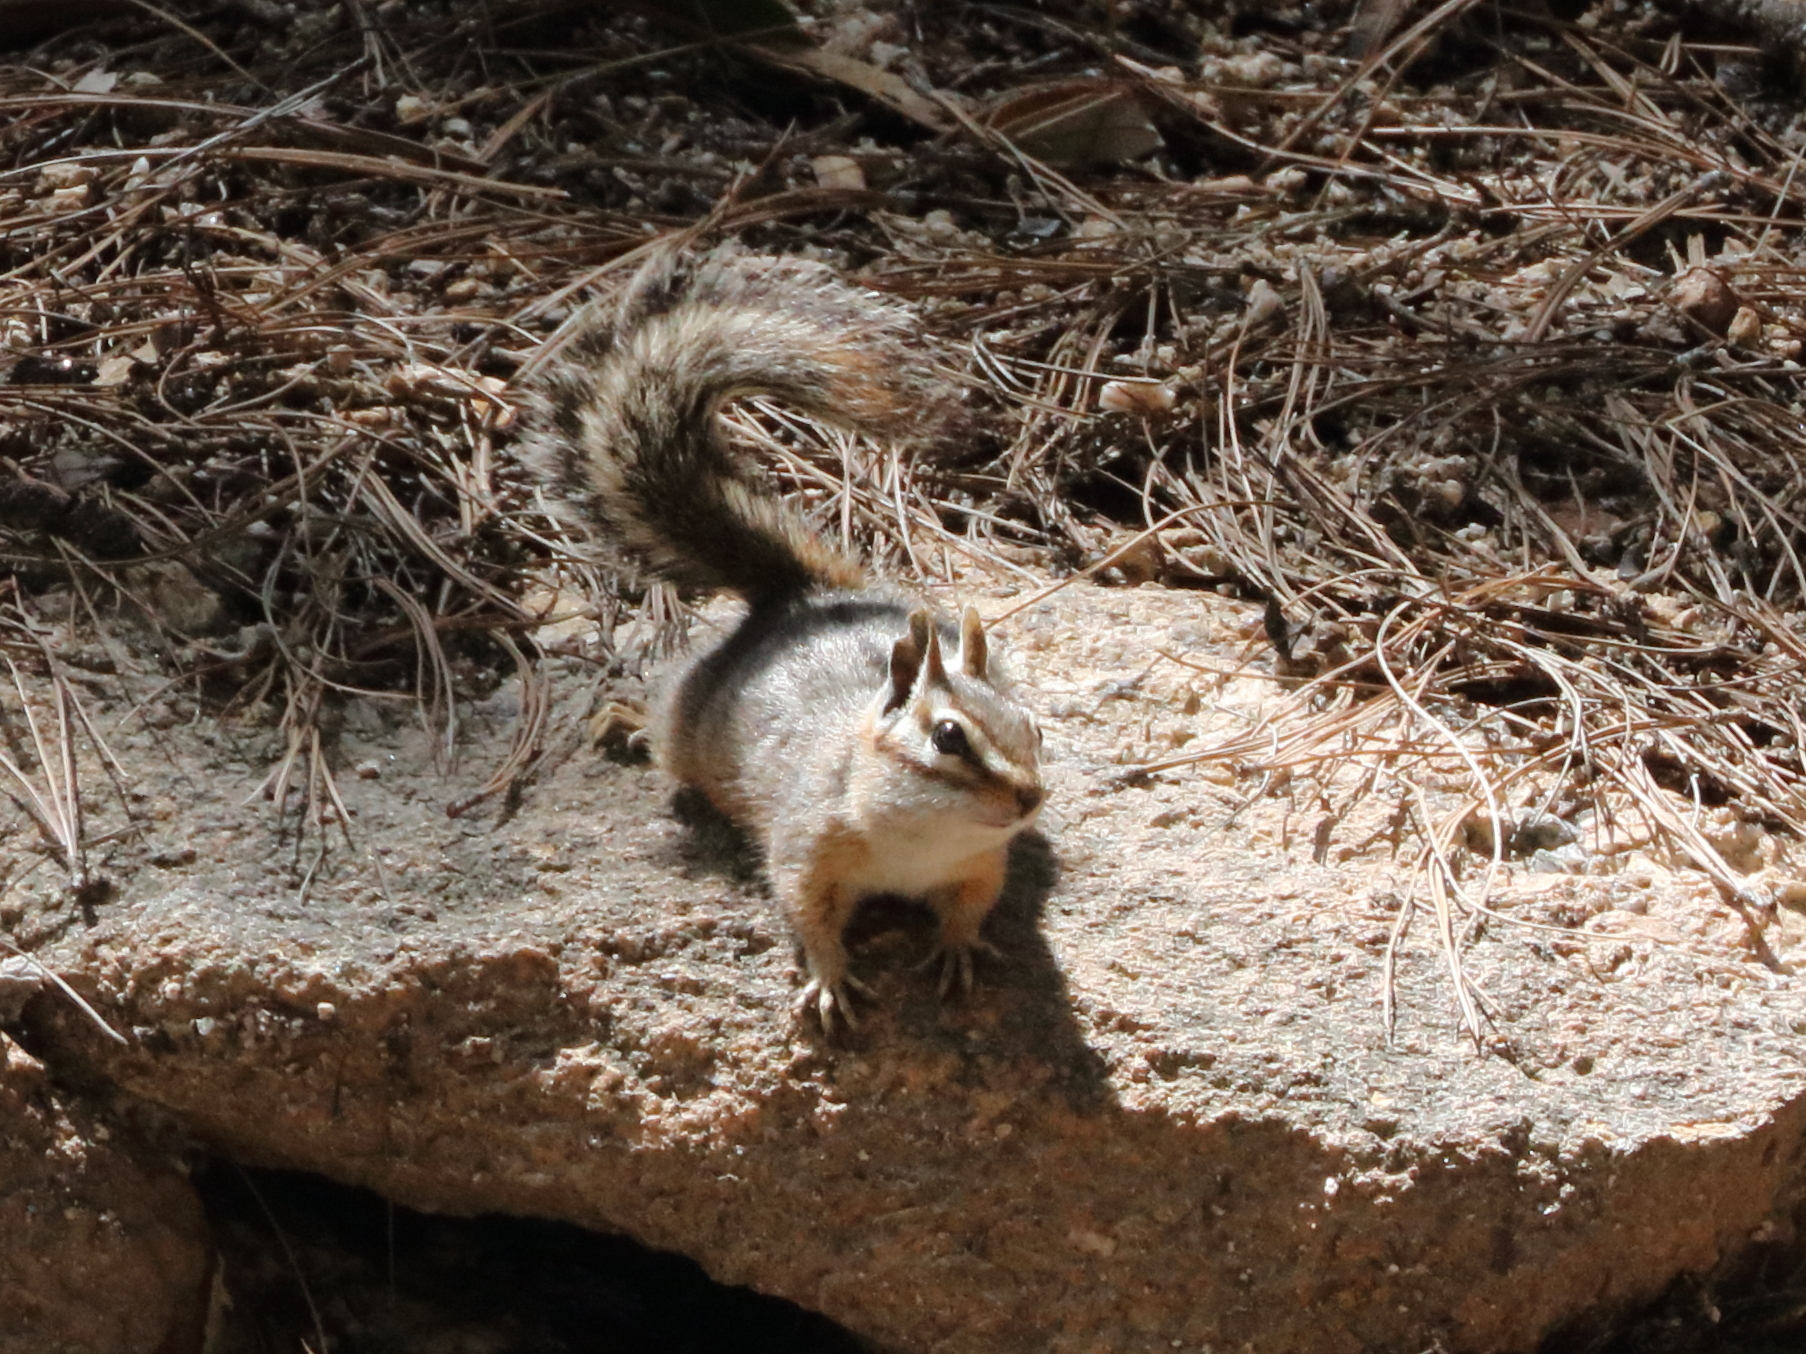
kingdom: Animalia
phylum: Chordata
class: Mammalia
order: Rodentia
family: Sciuridae
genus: Tamias
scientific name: Tamias dorsalis
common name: Cliff chipmunk
